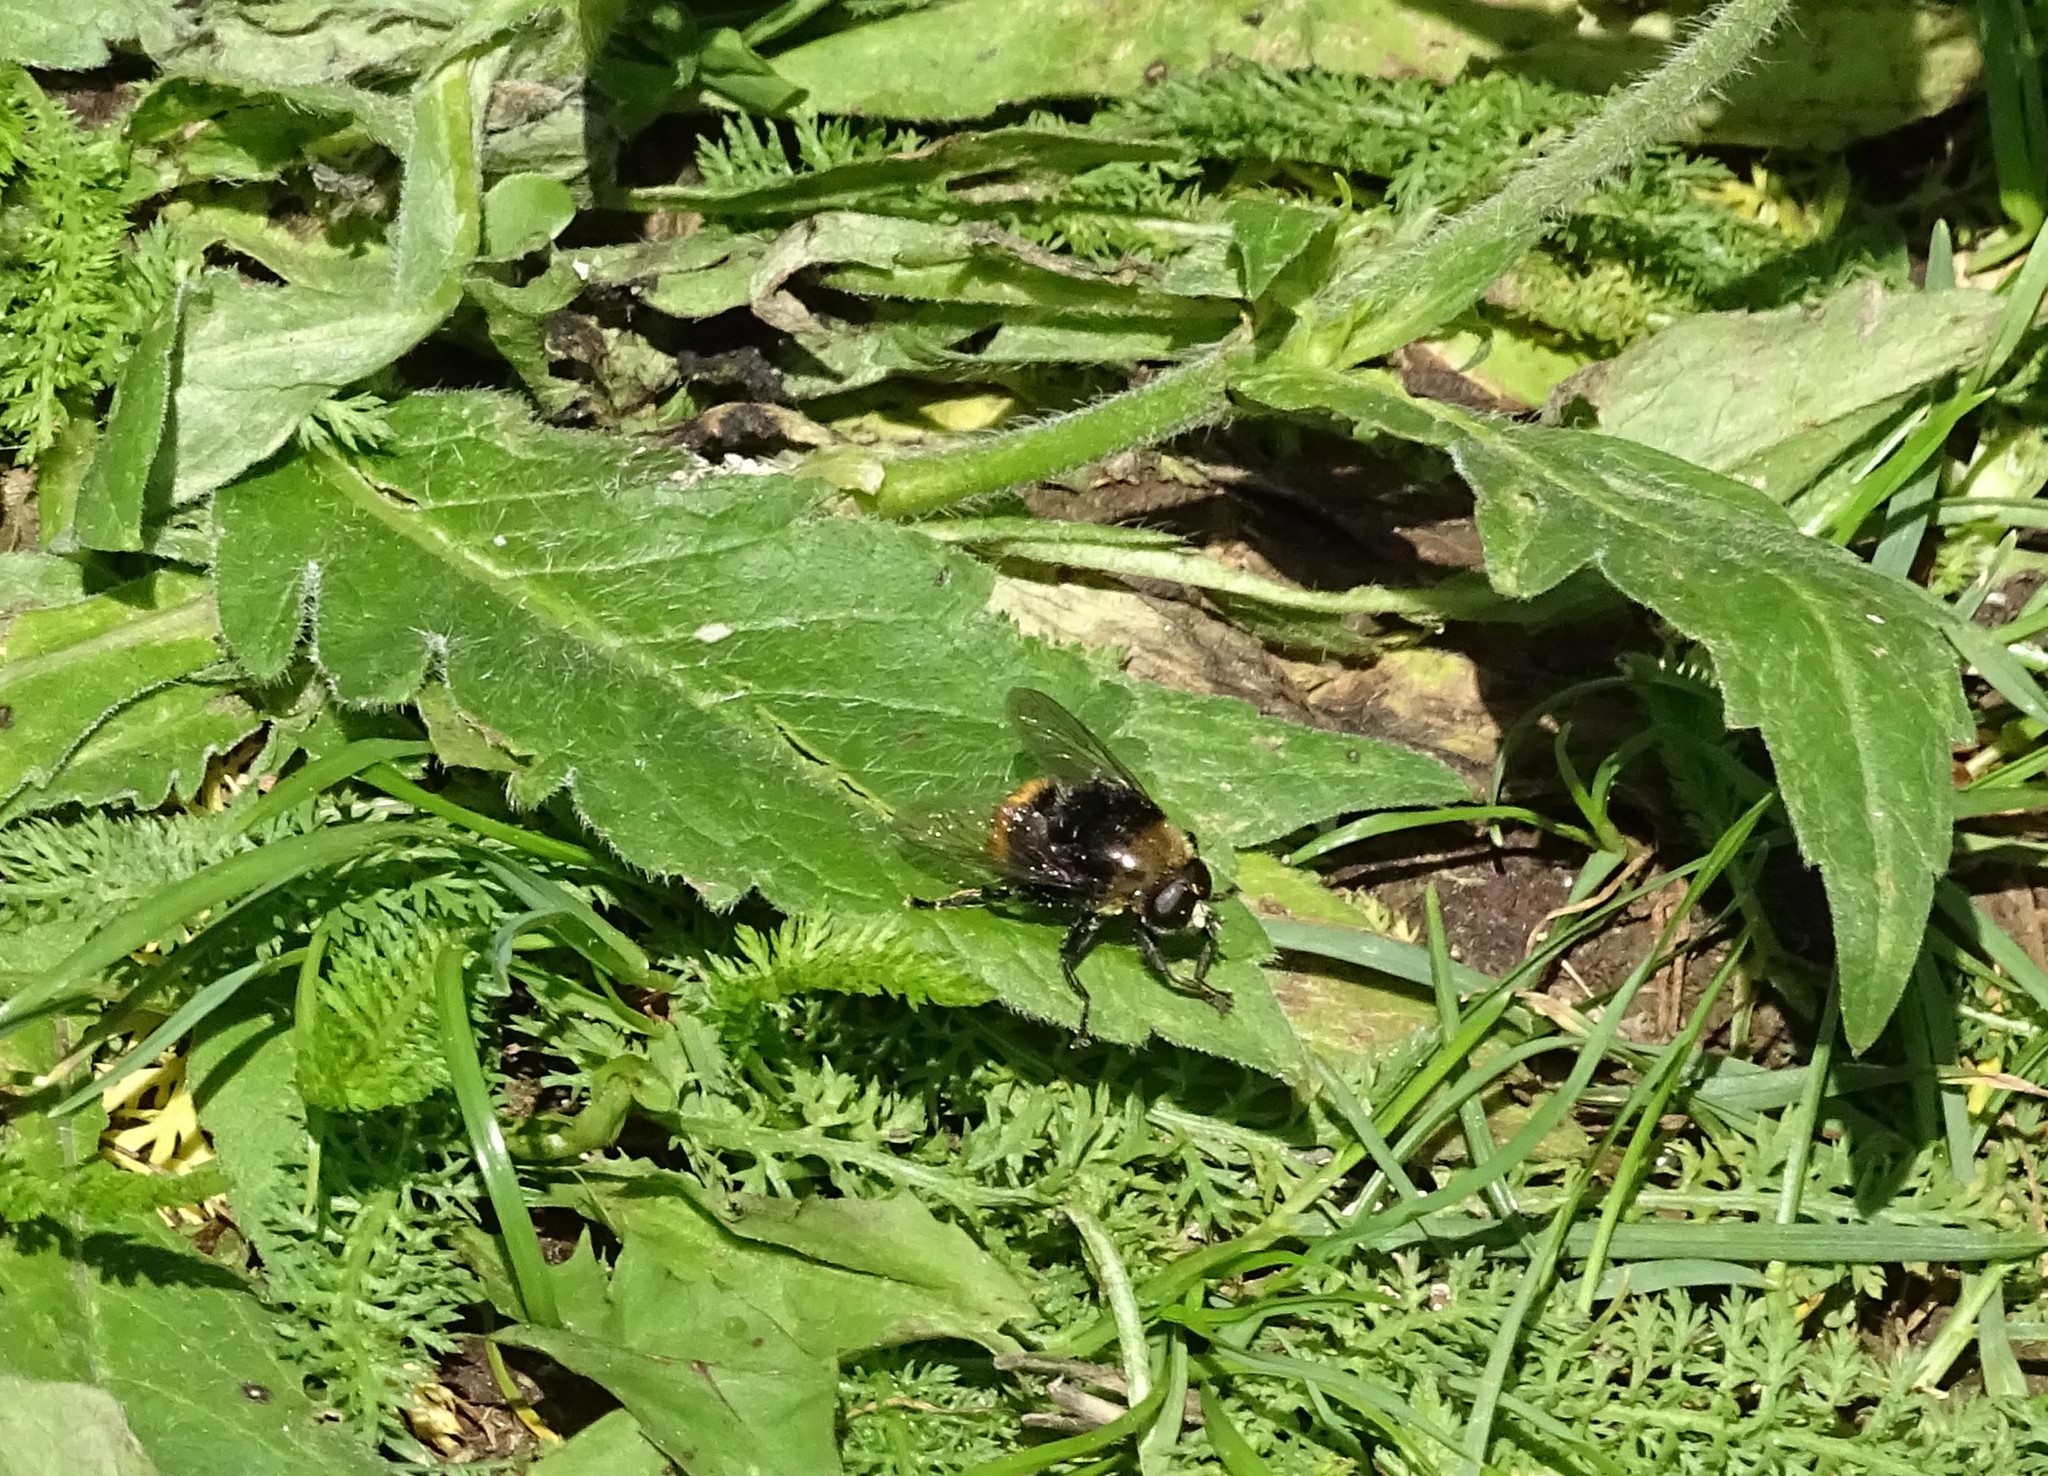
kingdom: Animalia
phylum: Arthropoda
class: Insecta
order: Diptera
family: Syrphidae
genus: Merodon
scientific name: Merodon equestris
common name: Greater bulb-fly
